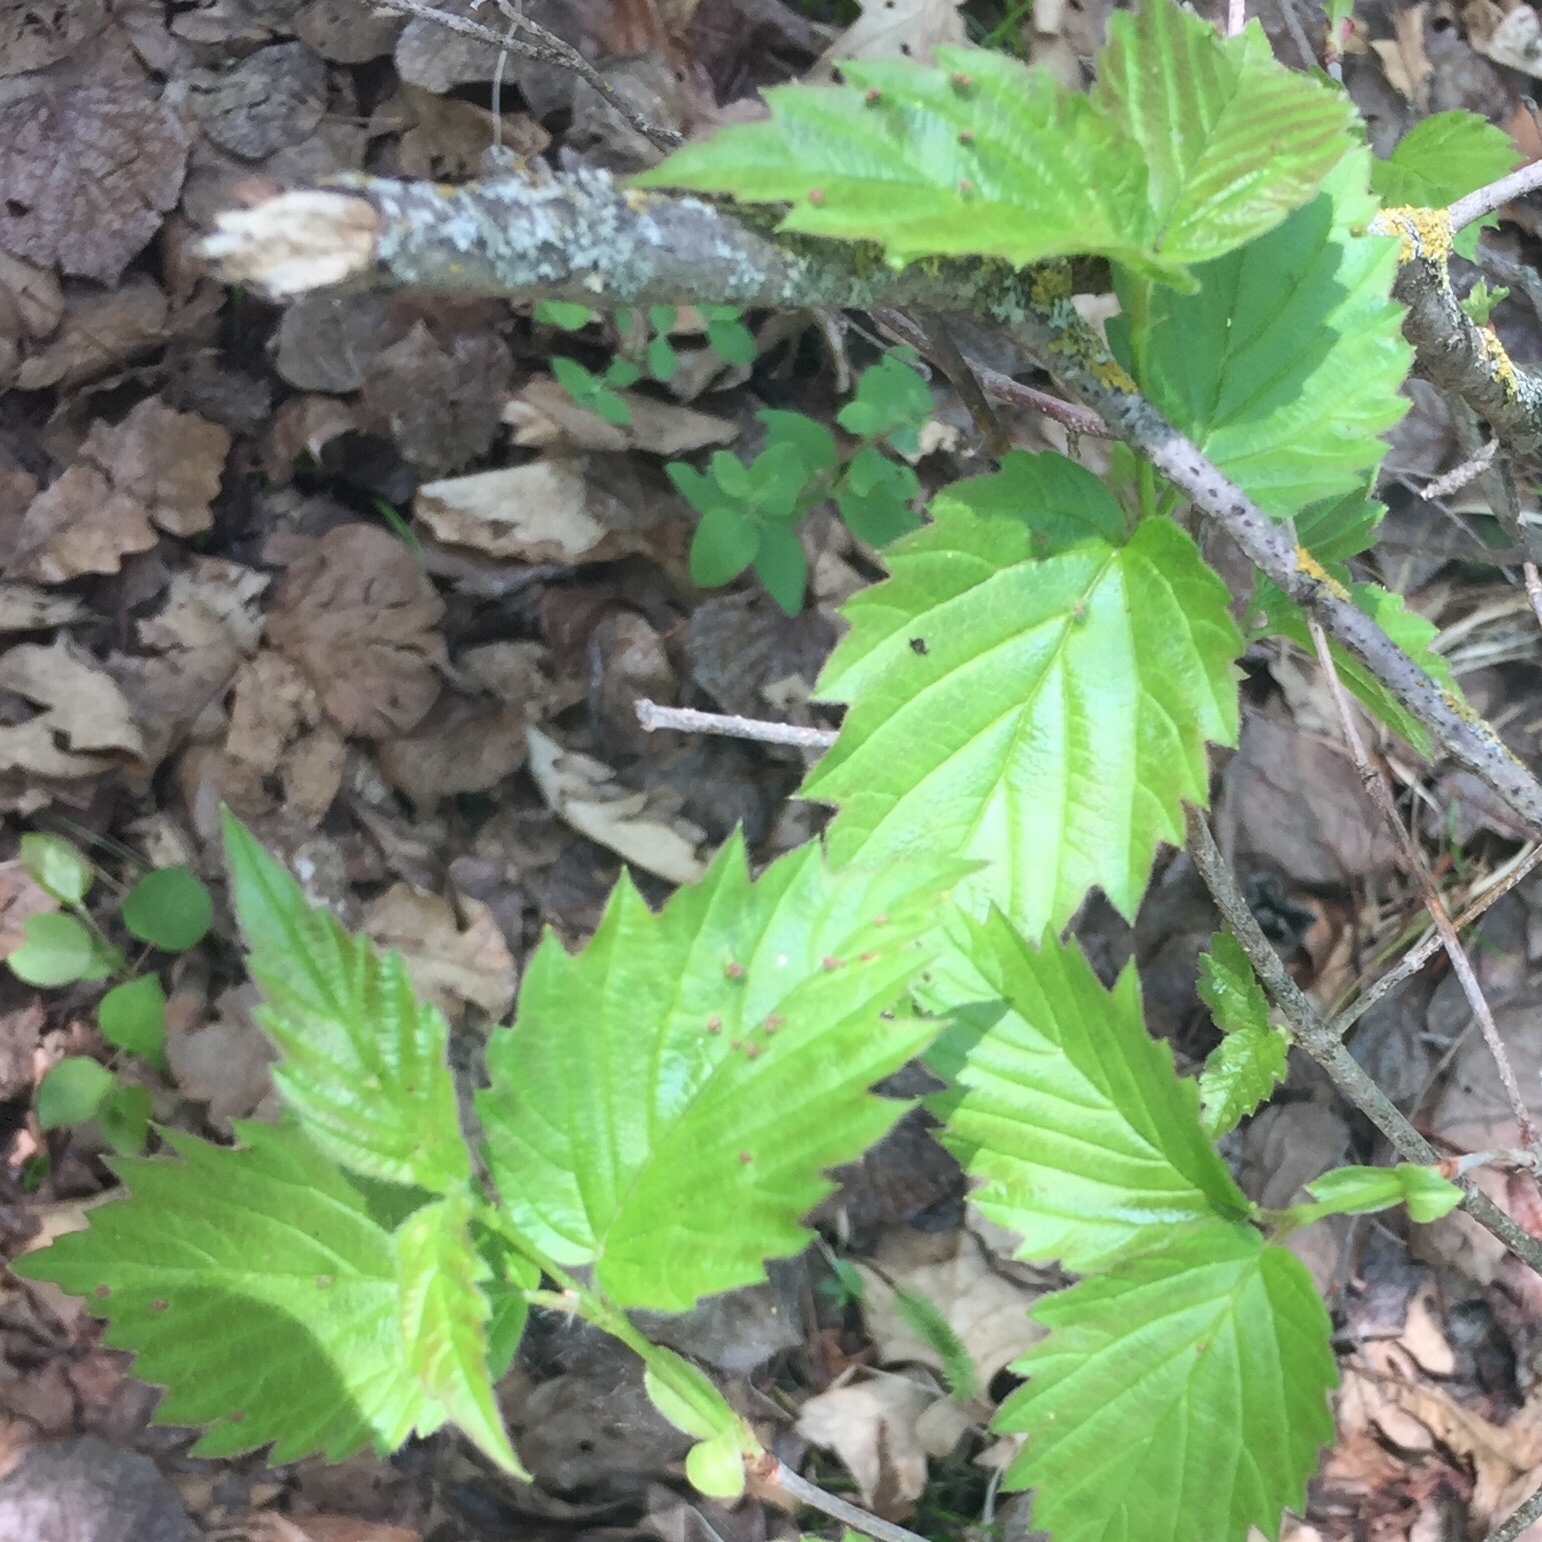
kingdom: Plantae
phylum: Tracheophyta
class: Magnoliopsida
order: Dipsacales
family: Viburnaceae
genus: Viburnum
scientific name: Viburnum rafinesqueanum
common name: Downy arrow-wood
